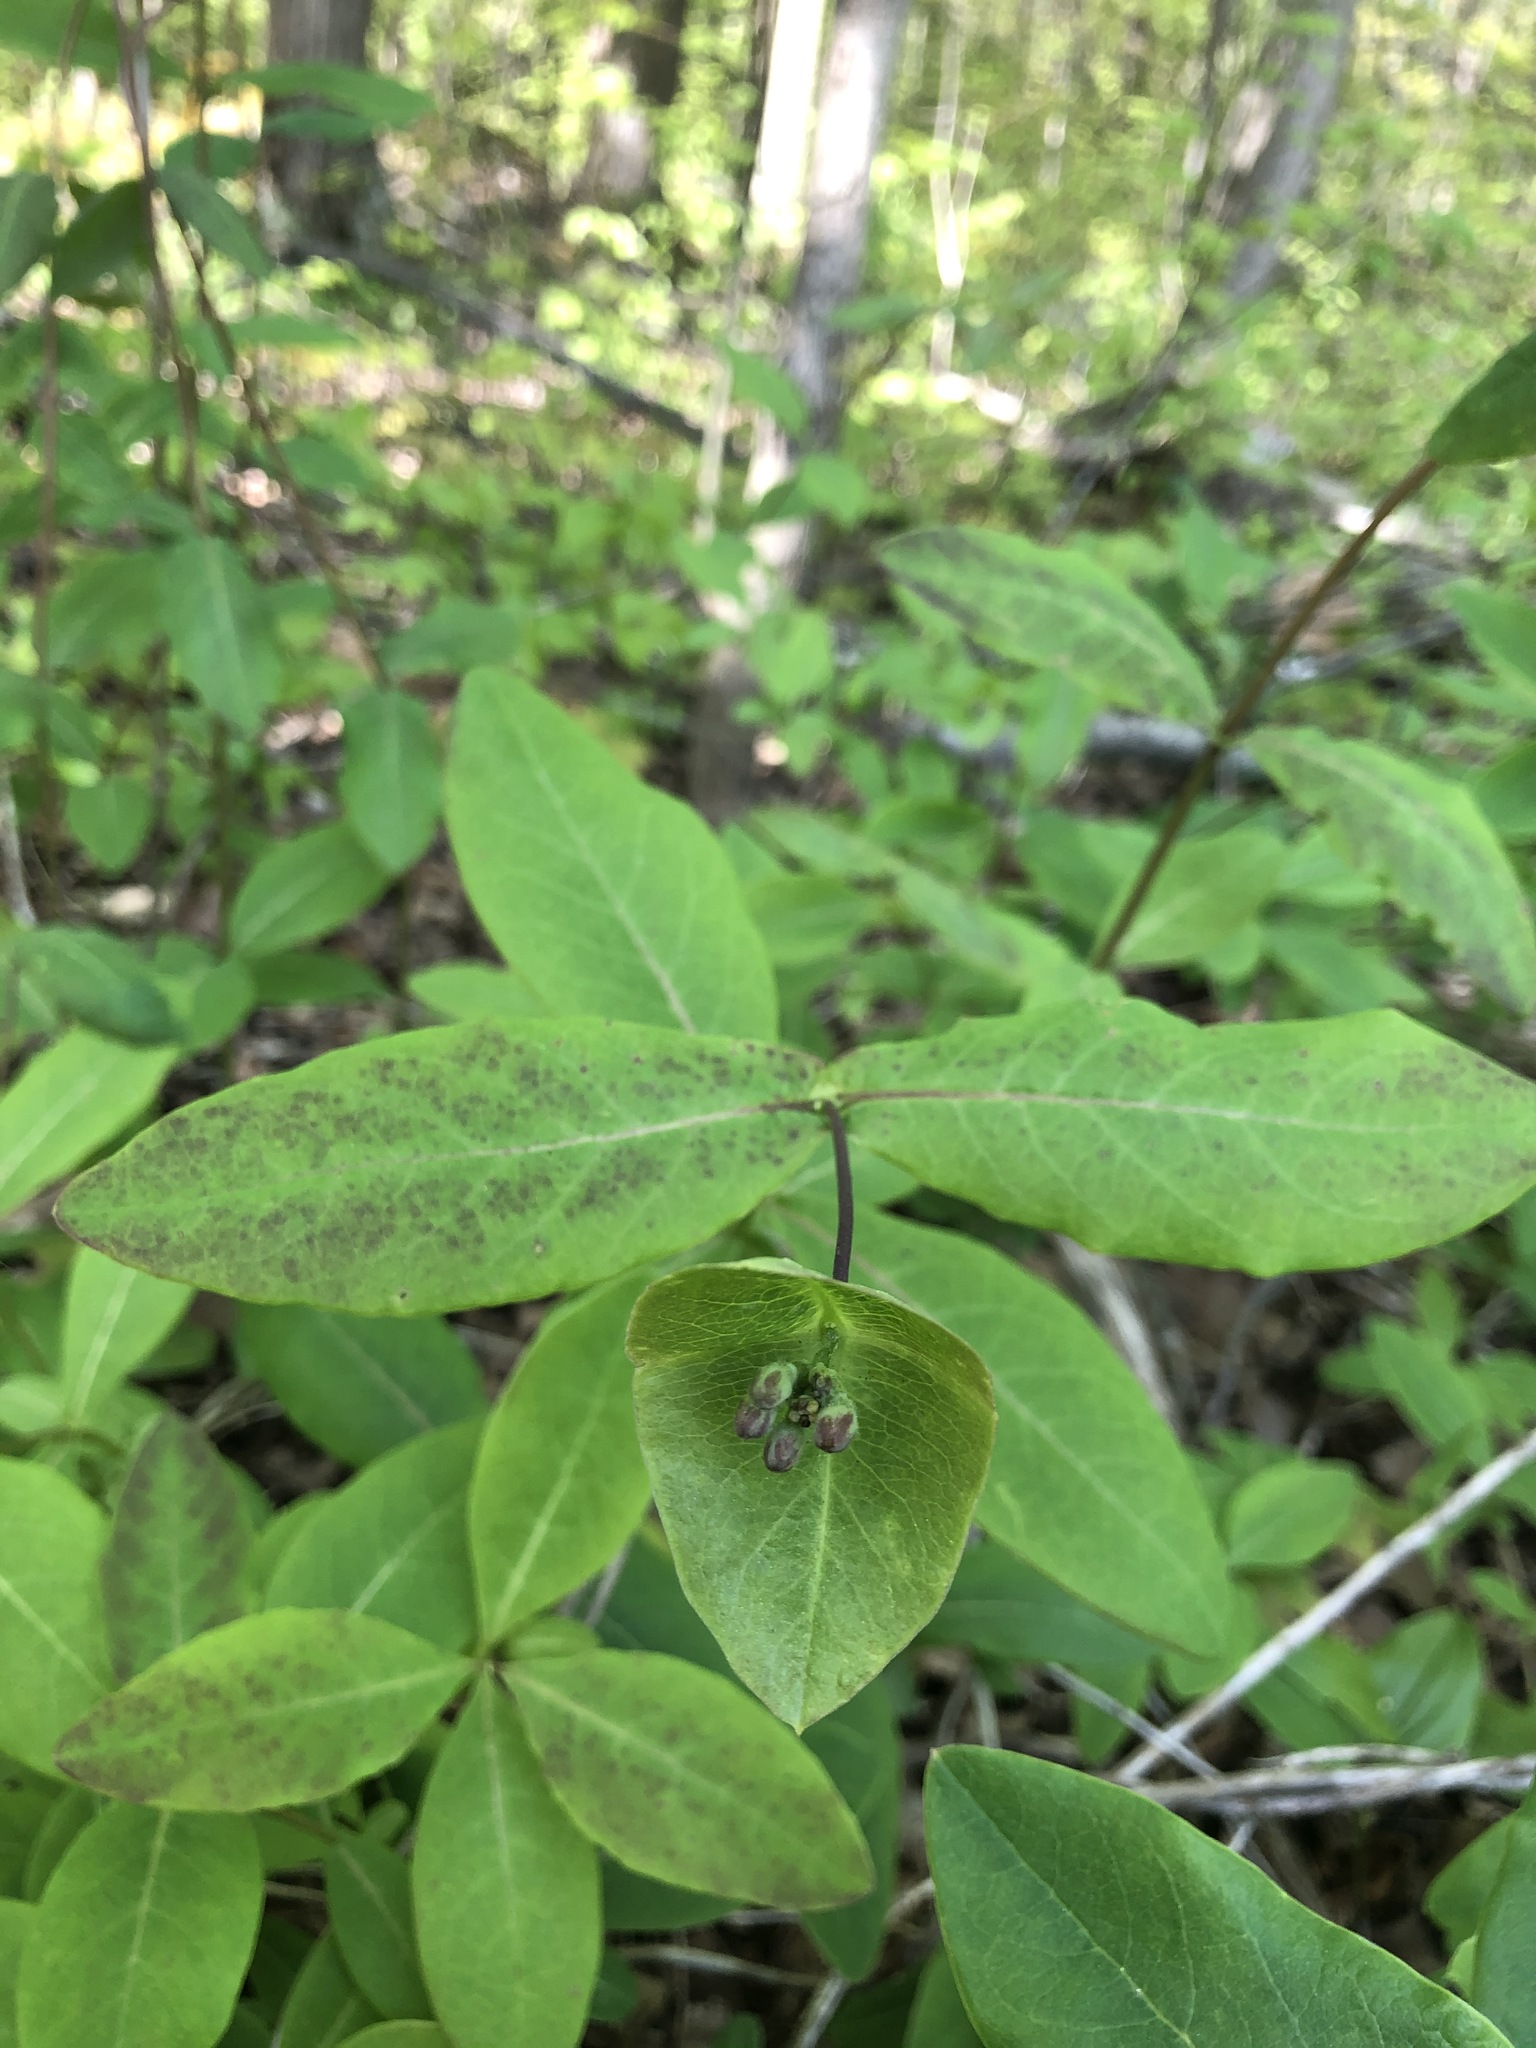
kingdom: Plantae
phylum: Tracheophyta
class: Magnoliopsida
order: Dipsacales
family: Caprifoliaceae
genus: Lonicera
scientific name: Lonicera dioica
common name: Limber honeysuckle
